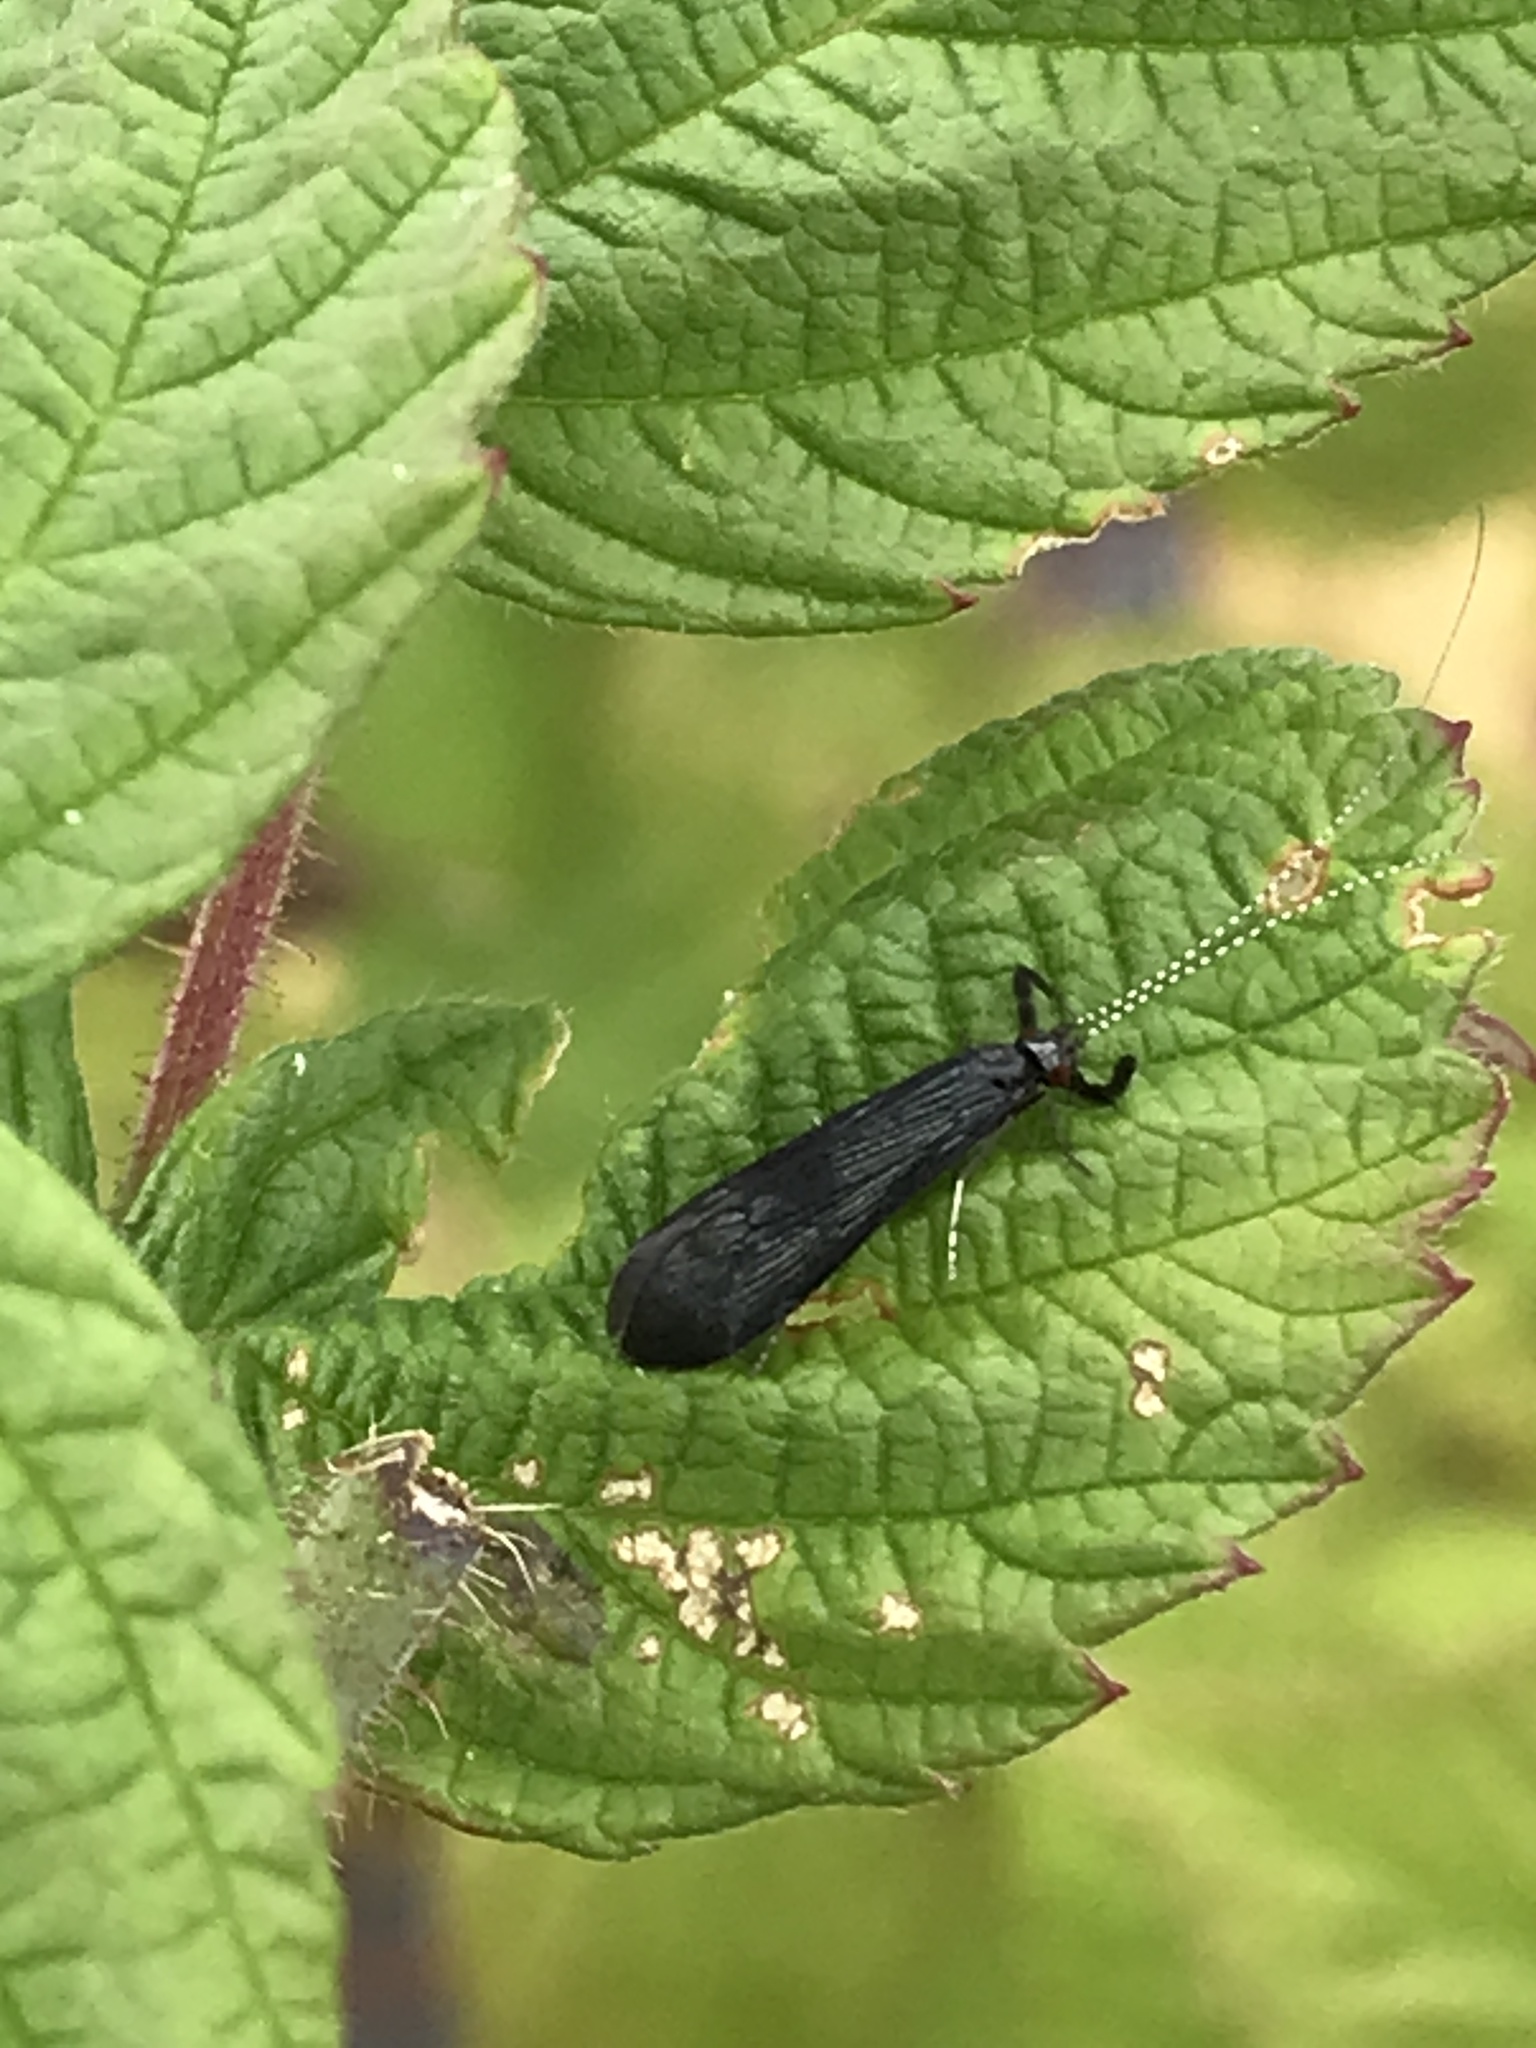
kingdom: Animalia
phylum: Arthropoda
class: Insecta
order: Trichoptera
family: Leptoceridae
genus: Mystacides
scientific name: Mystacides sepulchralis
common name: Black dancer caddisfly
